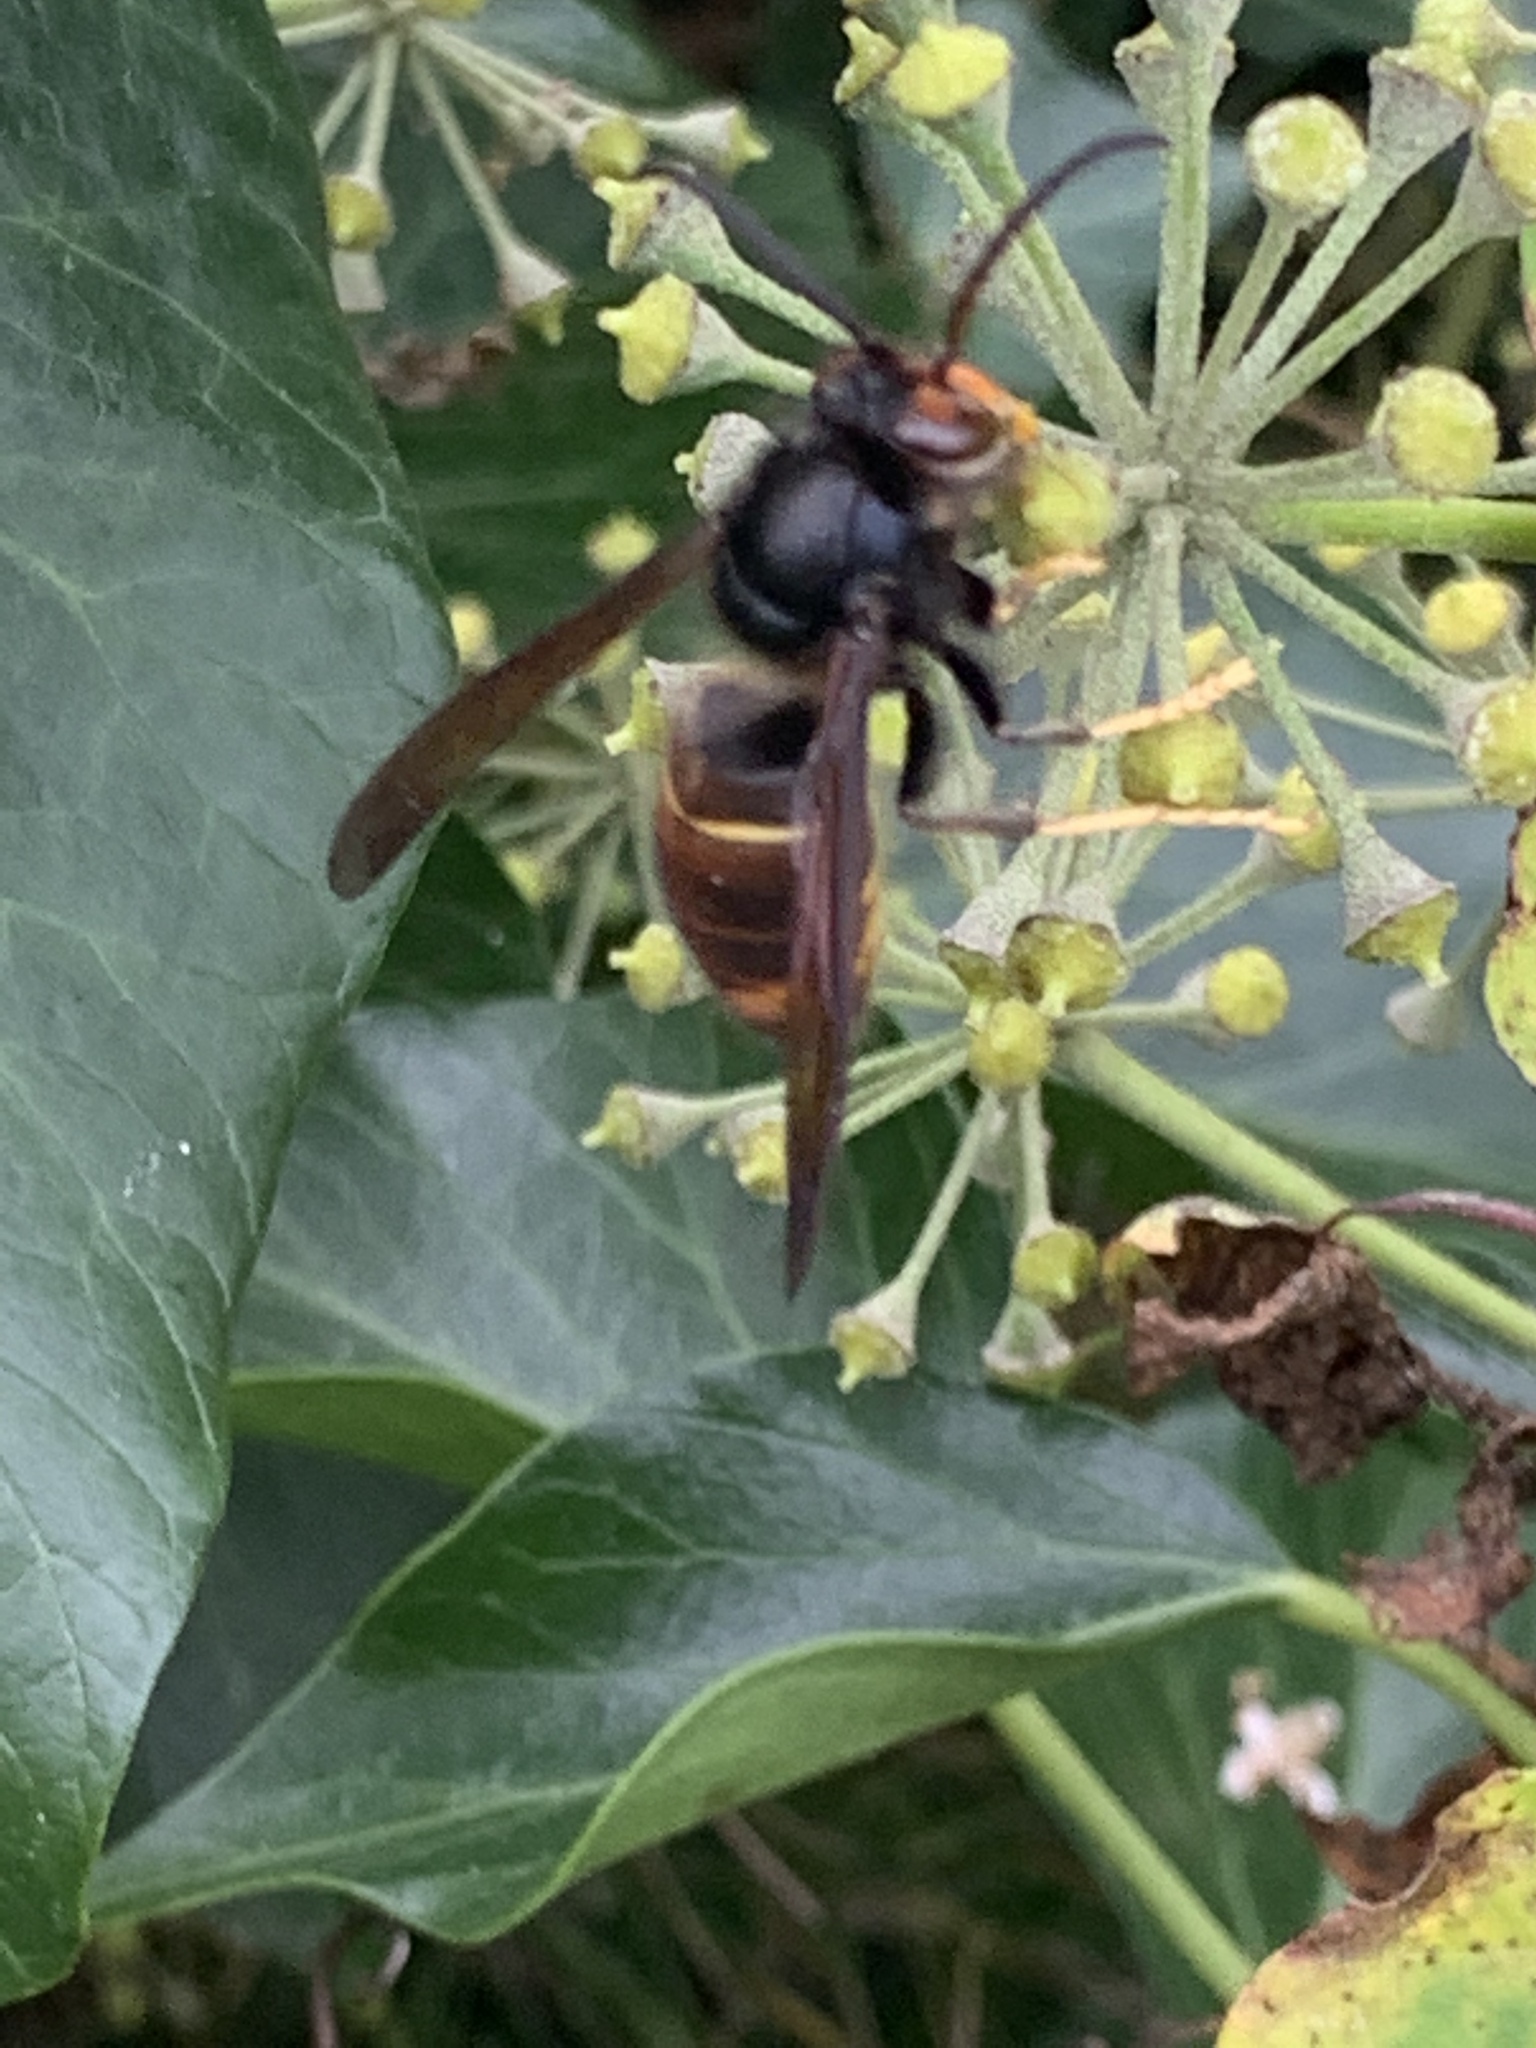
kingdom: Animalia
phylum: Arthropoda
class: Insecta
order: Hymenoptera
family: Vespidae
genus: Vespa
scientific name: Vespa velutina
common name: Asian hornet
